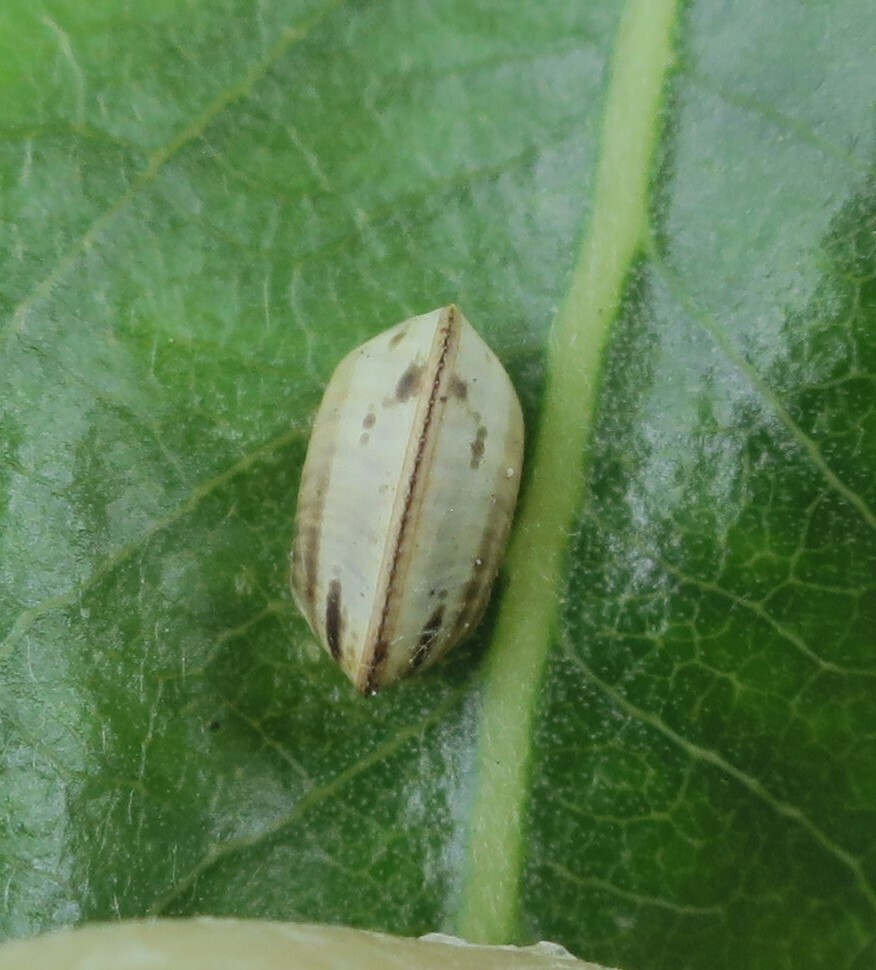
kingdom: Animalia
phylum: Arthropoda
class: Insecta
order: Blattodea
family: Ectobiidae
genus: Balta
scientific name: Balta bicolor
